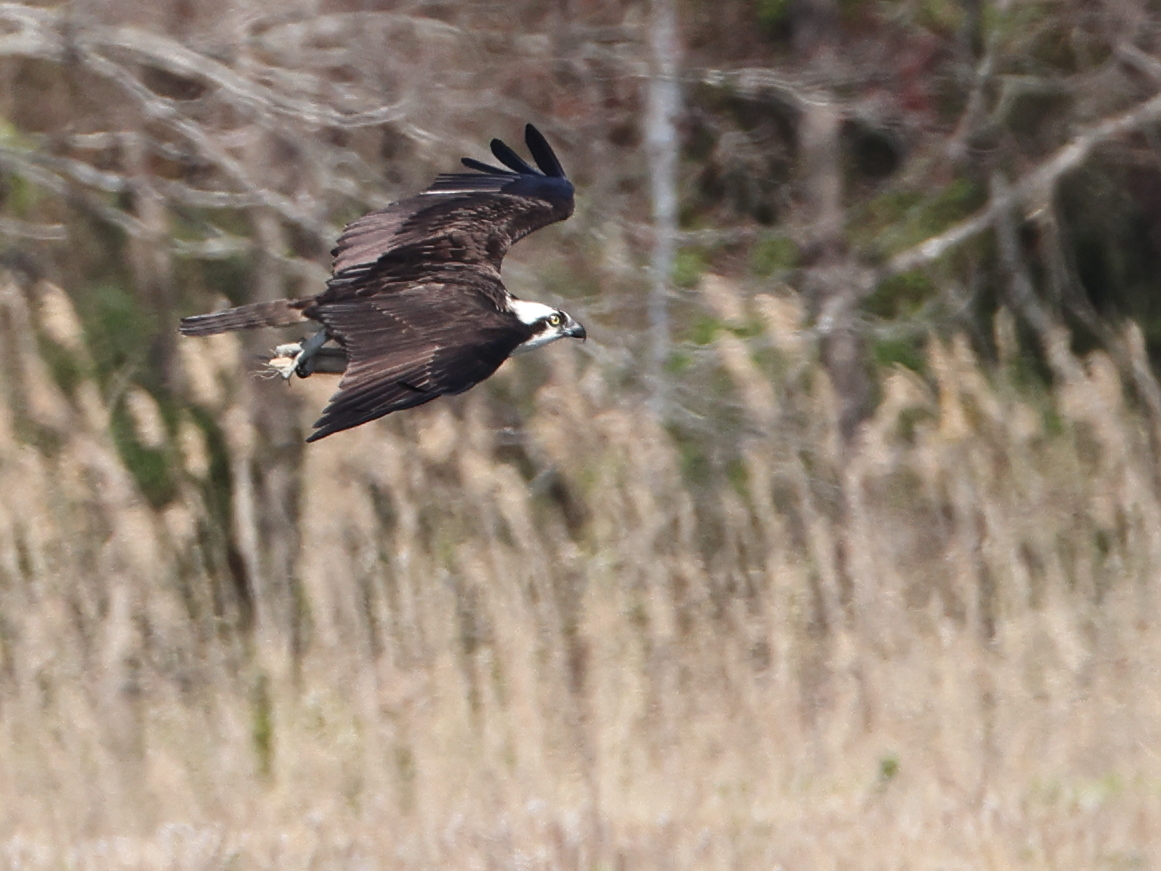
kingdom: Animalia
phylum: Chordata
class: Aves
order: Accipitriformes
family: Pandionidae
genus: Pandion
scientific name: Pandion haliaetus
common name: Osprey
